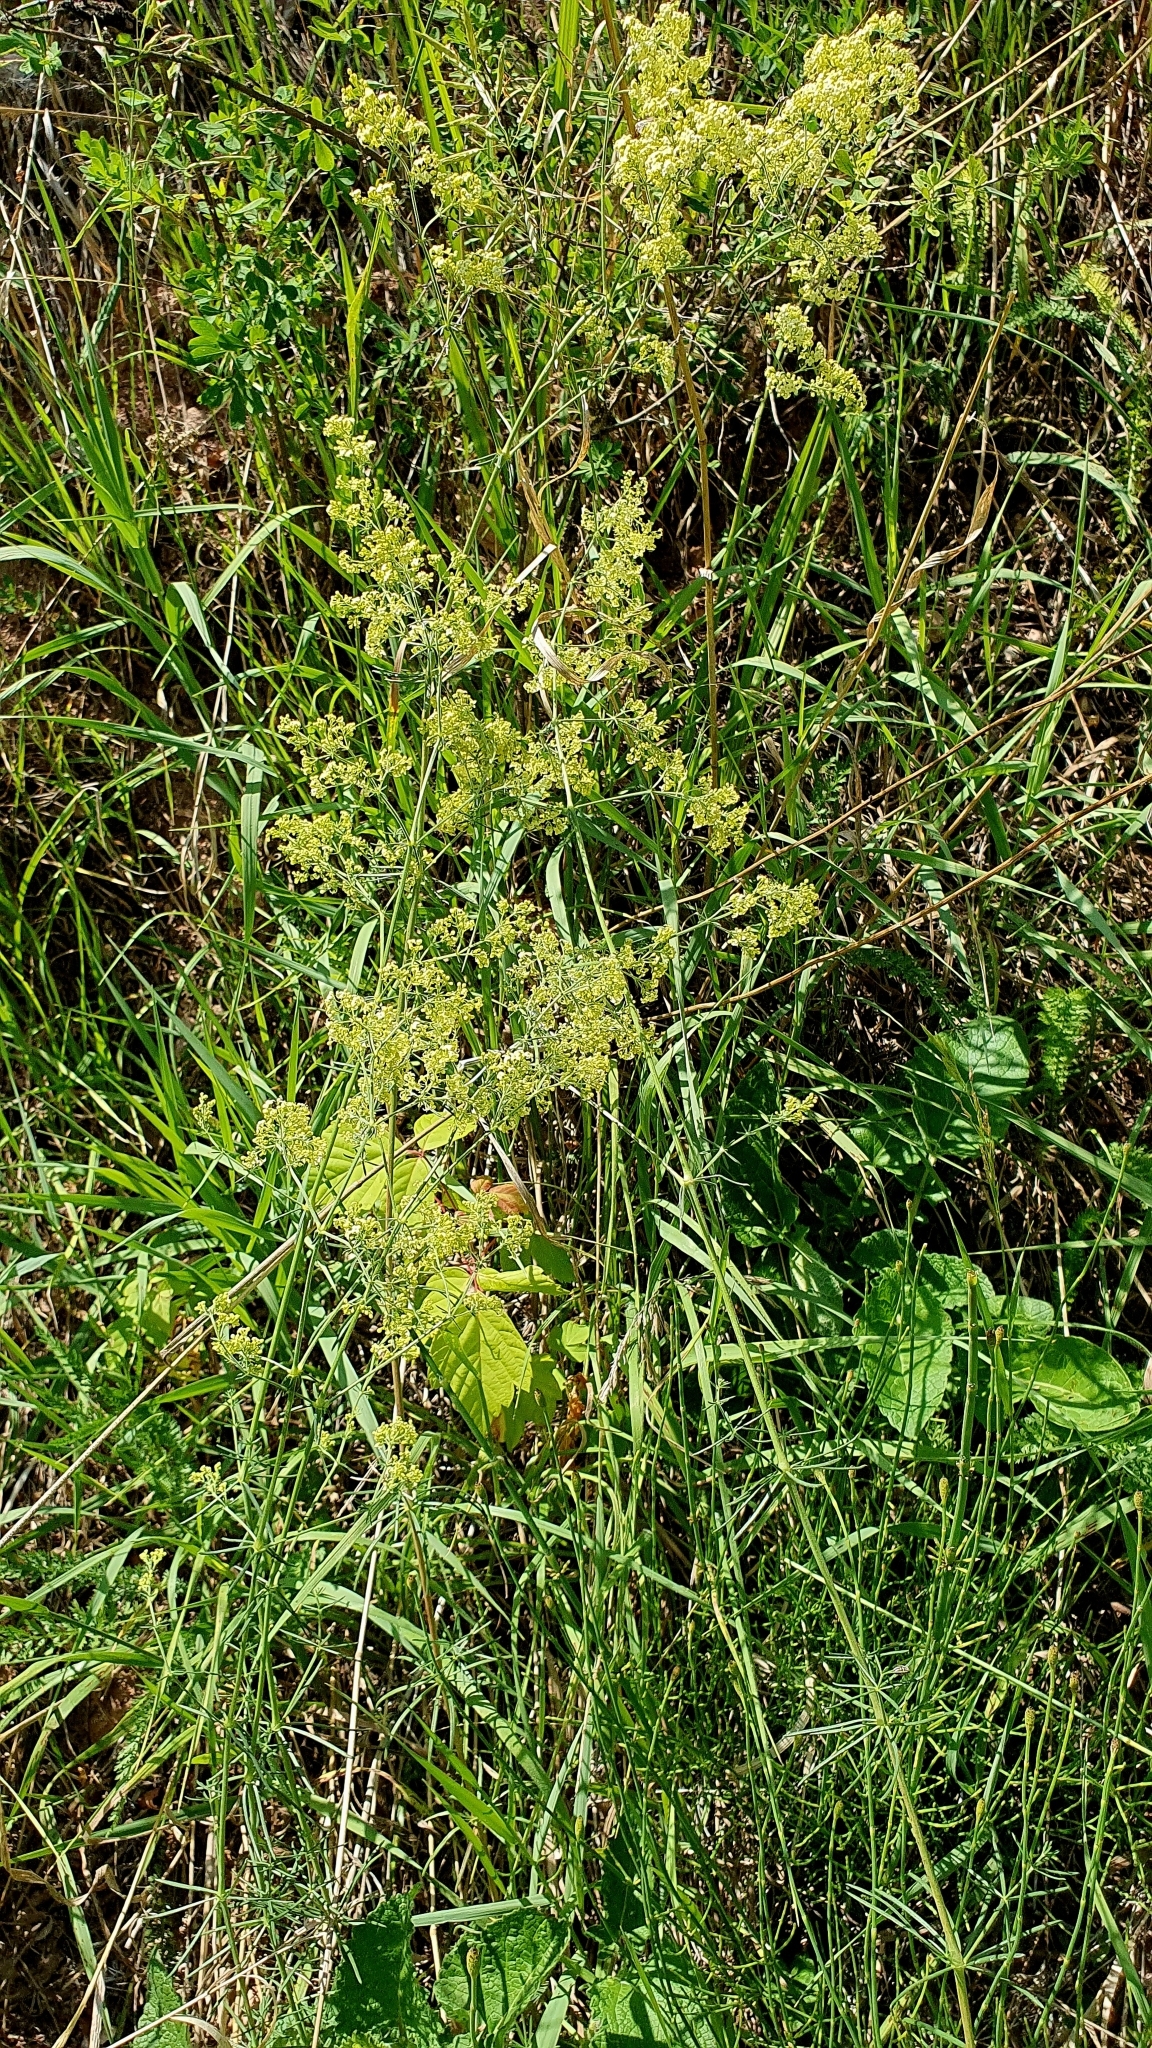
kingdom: Plantae
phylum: Tracheophyta
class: Magnoliopsida
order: Gentianales
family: Rubiaceae
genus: Galium
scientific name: Galium verum
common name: Lady's bedstraw
